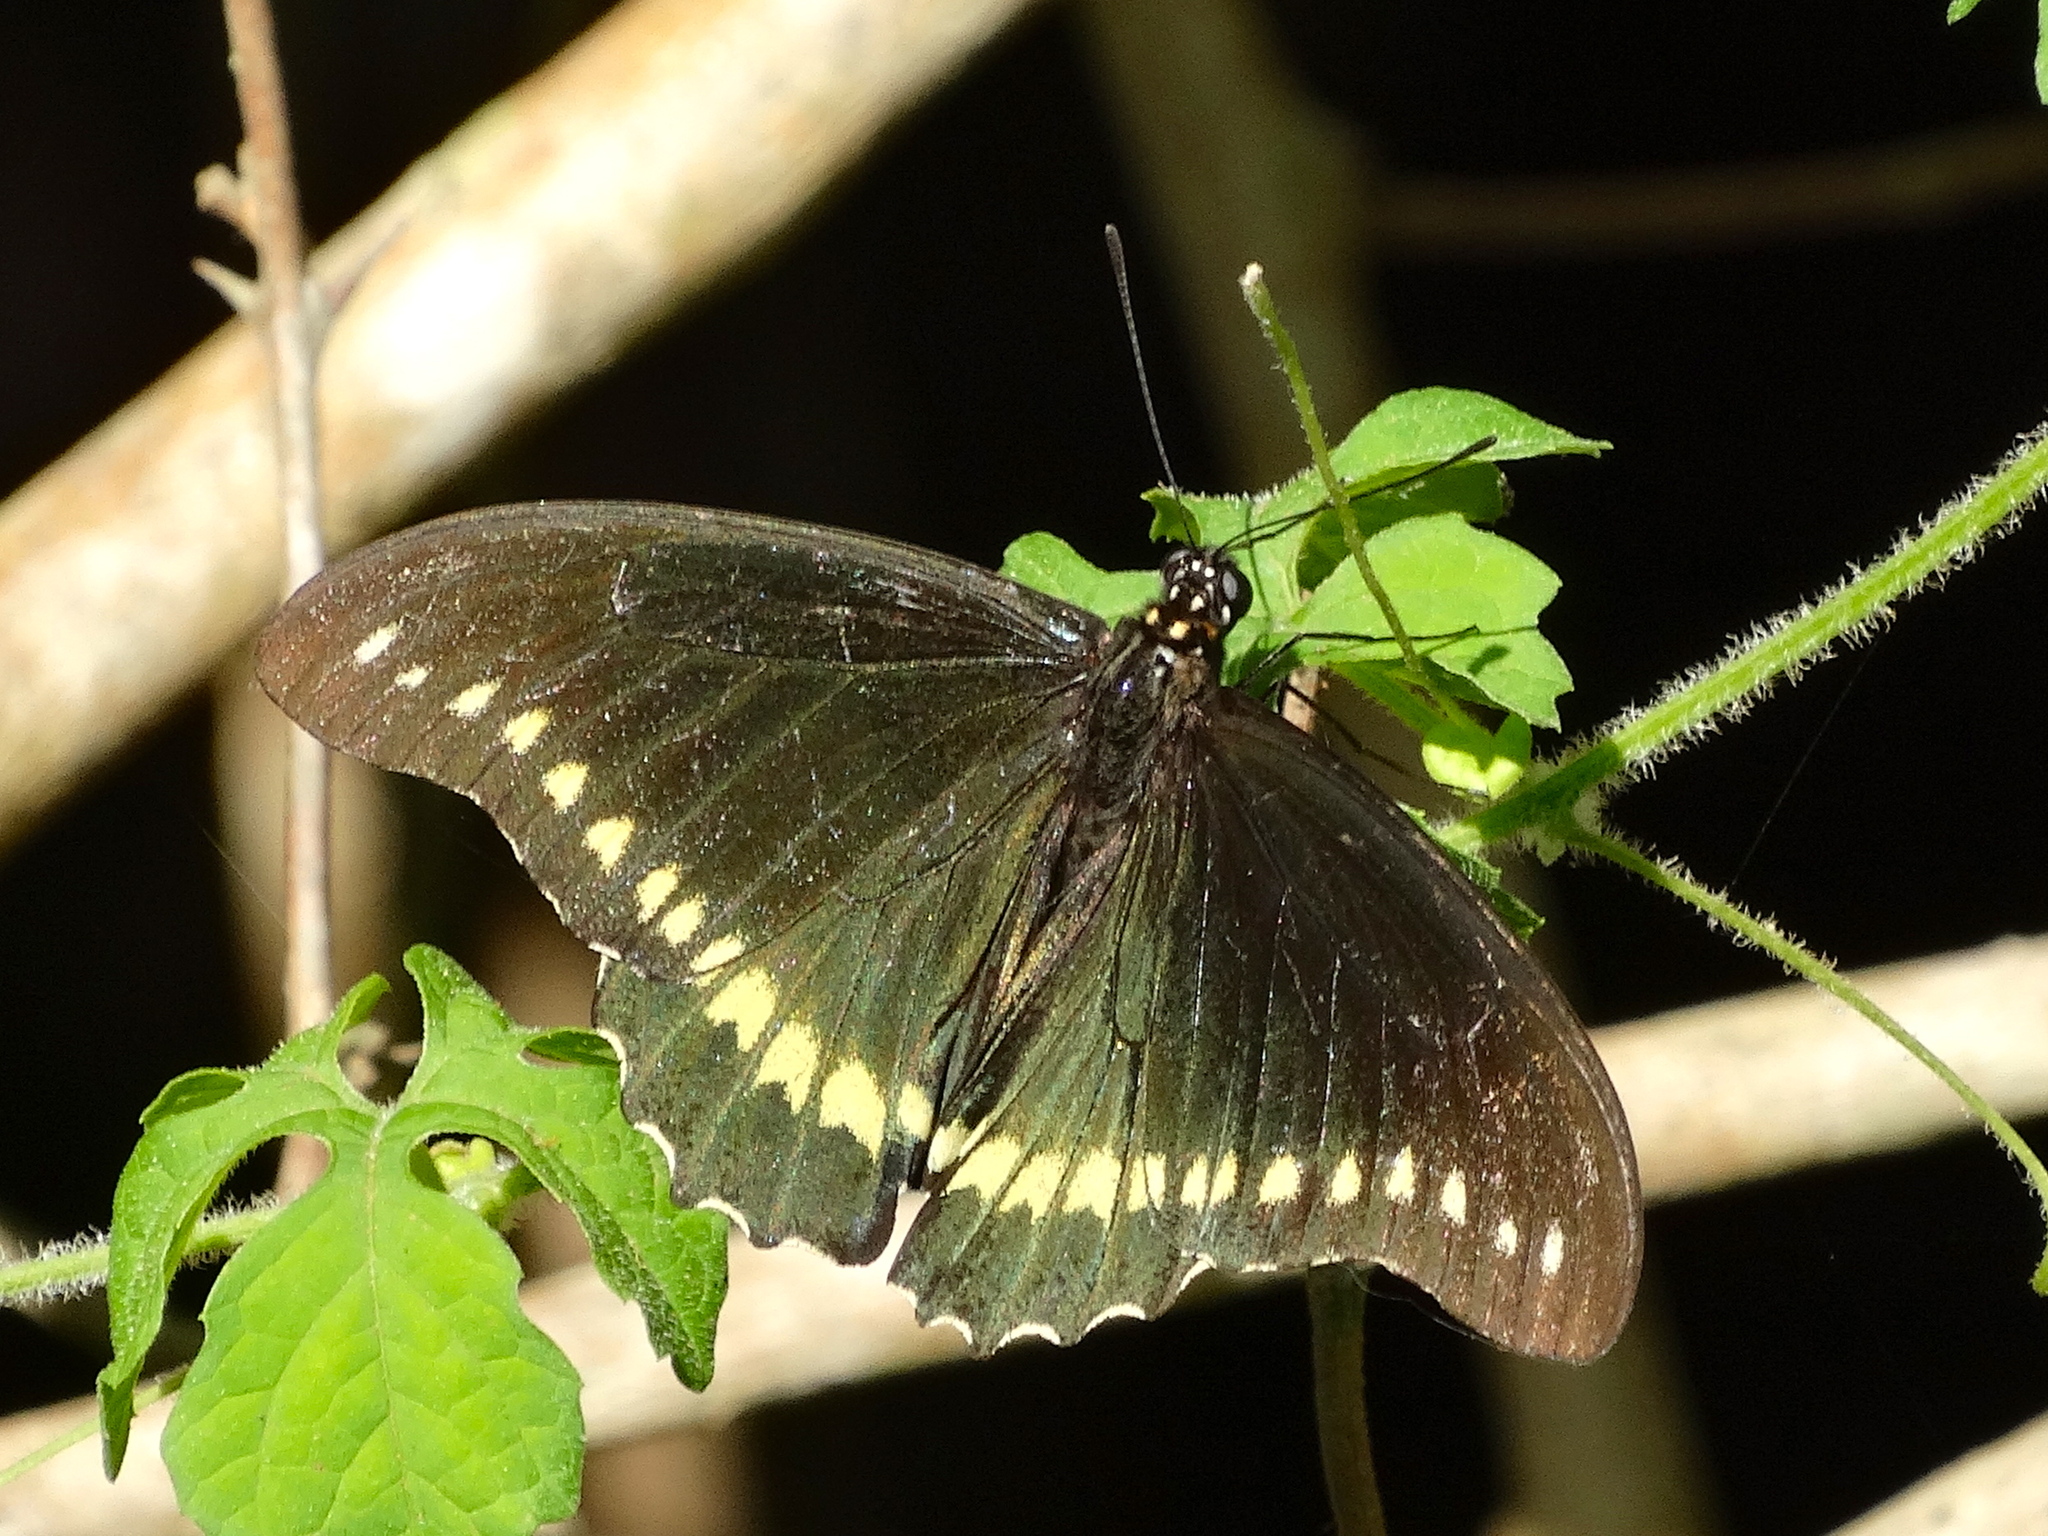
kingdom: Animalia
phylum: Arthropoda
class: Insecta
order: Lepidoptera
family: Papilionidae
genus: Battus
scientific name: Battus polydamas
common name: Polydamas swallowtail
